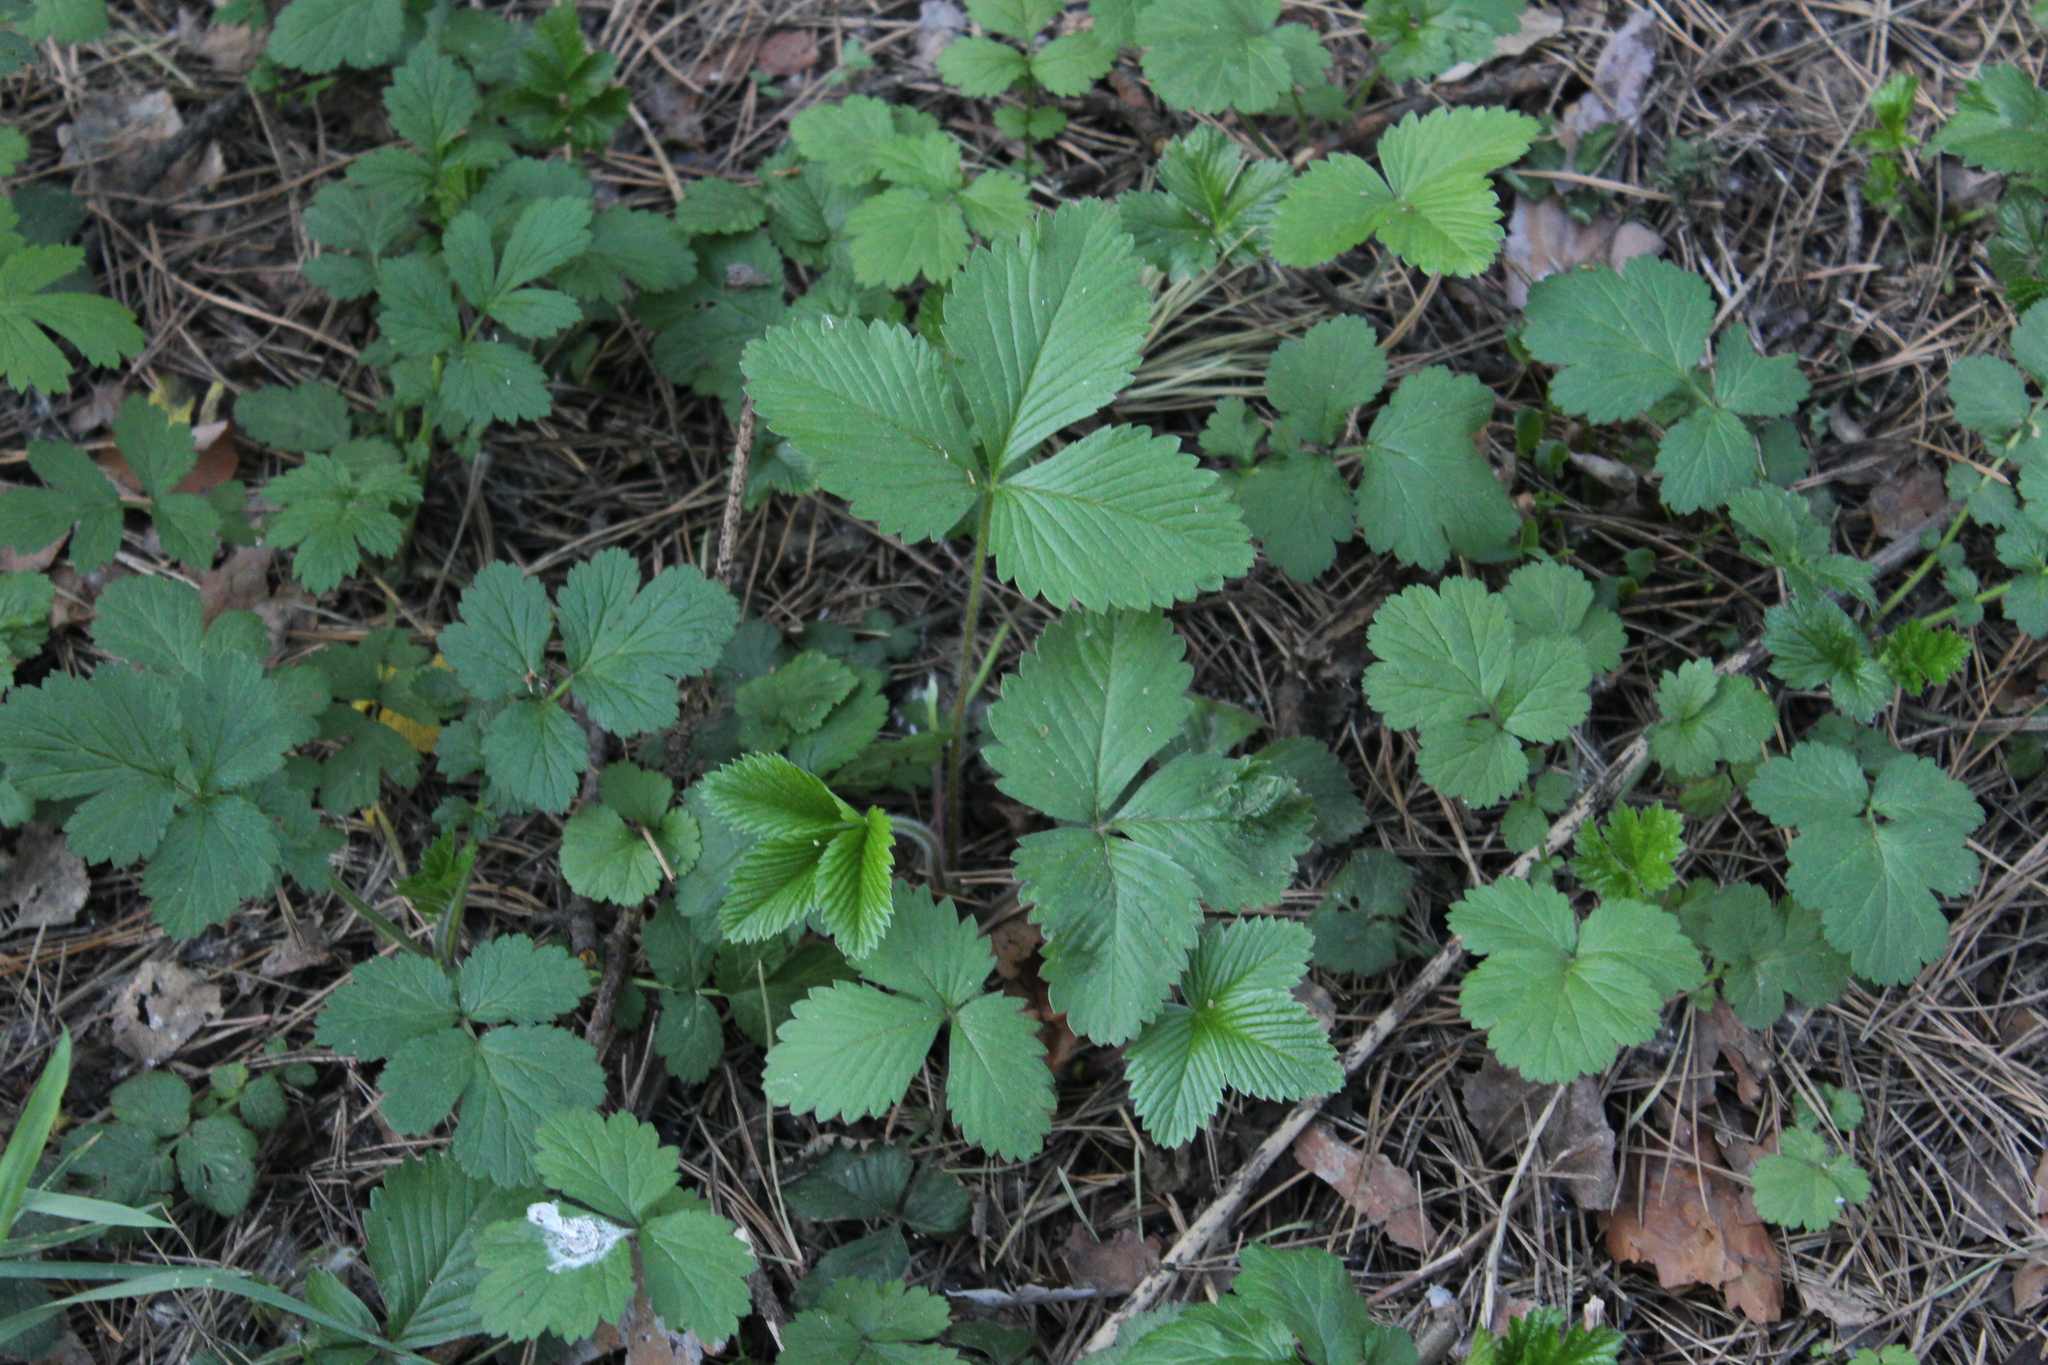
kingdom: Plantae
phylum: Tracheophyta
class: Magnoliopsida
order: Rosales
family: Rosaceae
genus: Fragaria
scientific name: Fragaria vesca
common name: Wild strawberry
